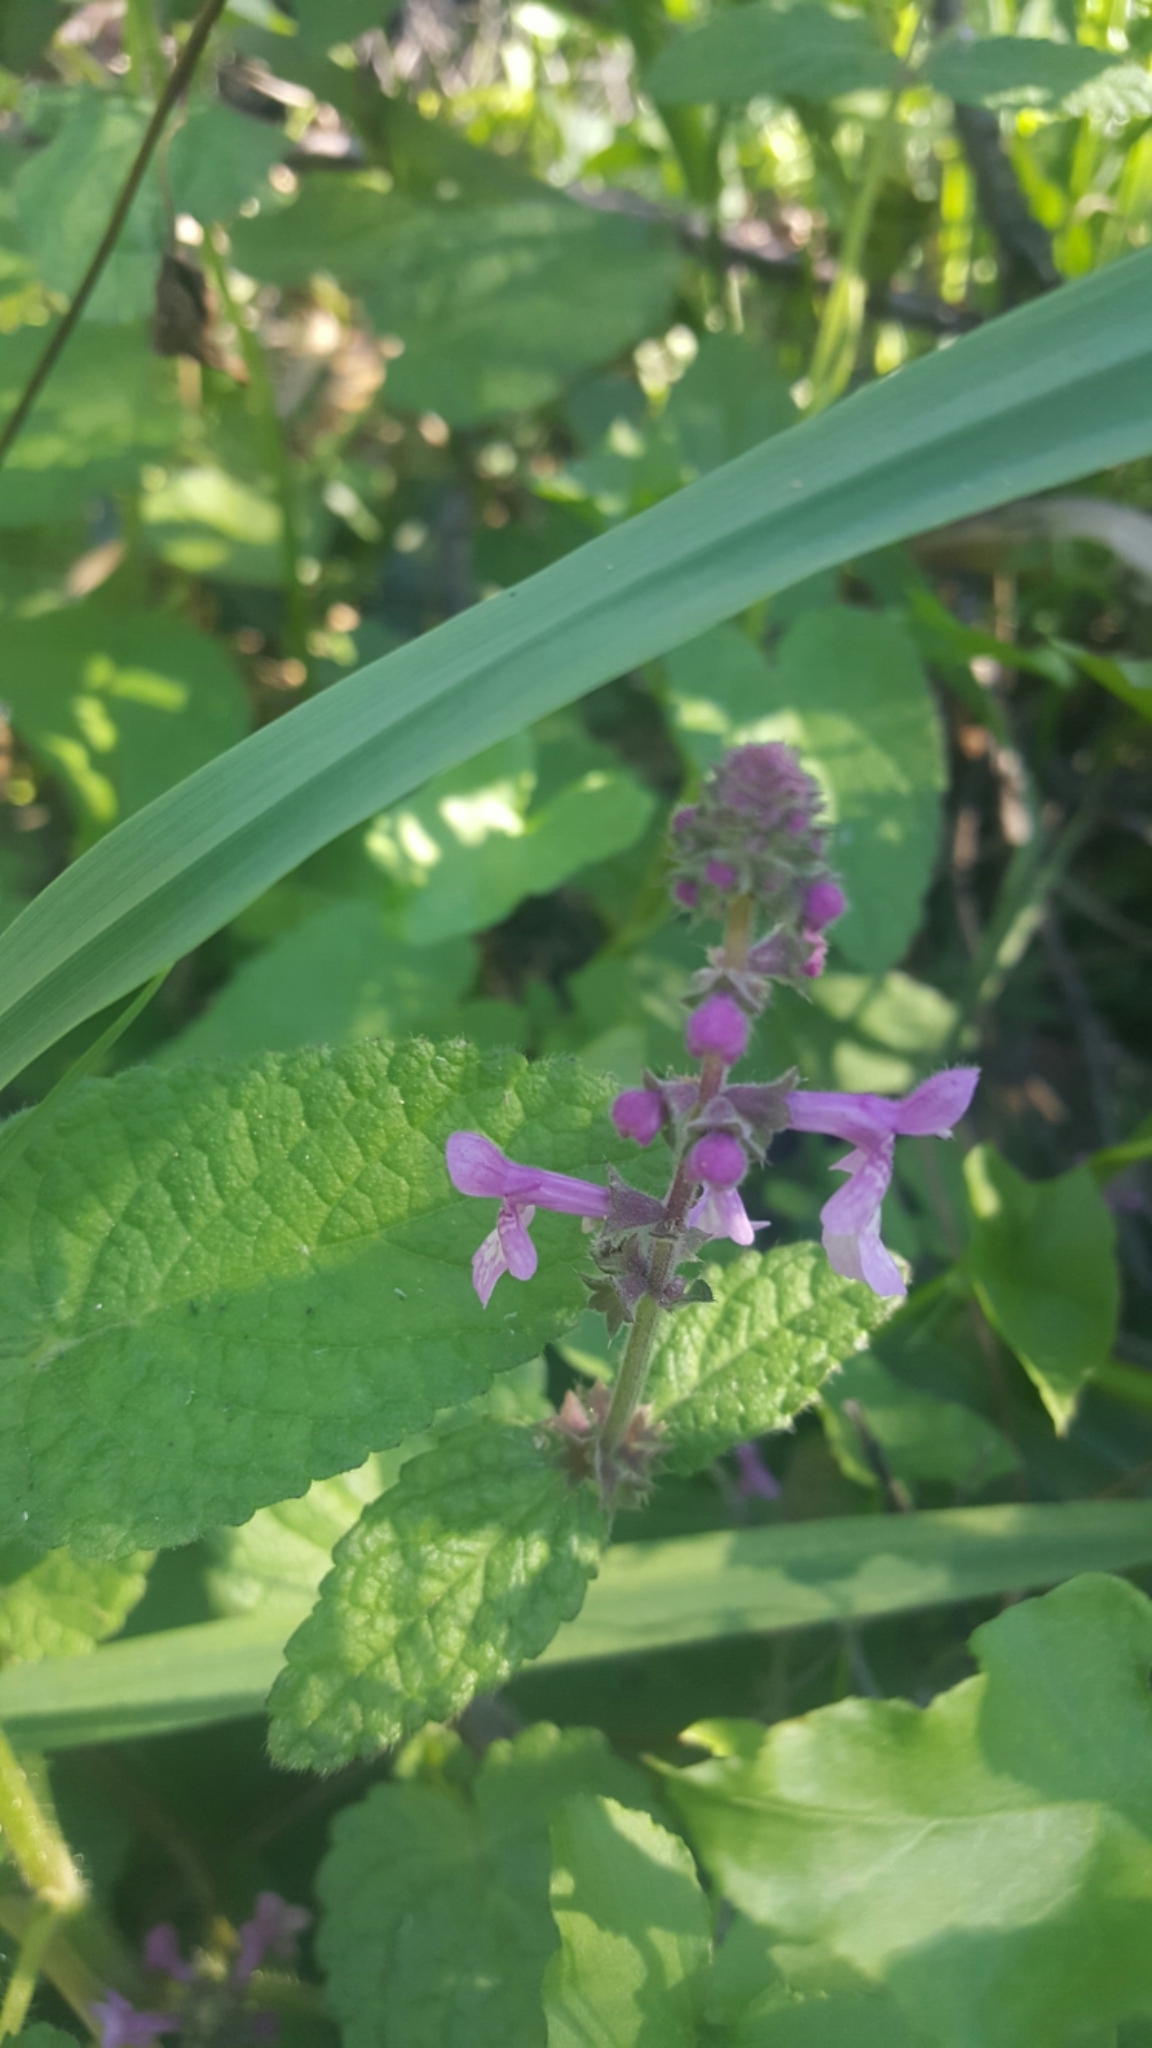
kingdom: Plantae
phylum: Tracheophyta
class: Magnoliopsida
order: Lamiales
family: Lamiaceae
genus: Stachys
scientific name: Stachys bullata
